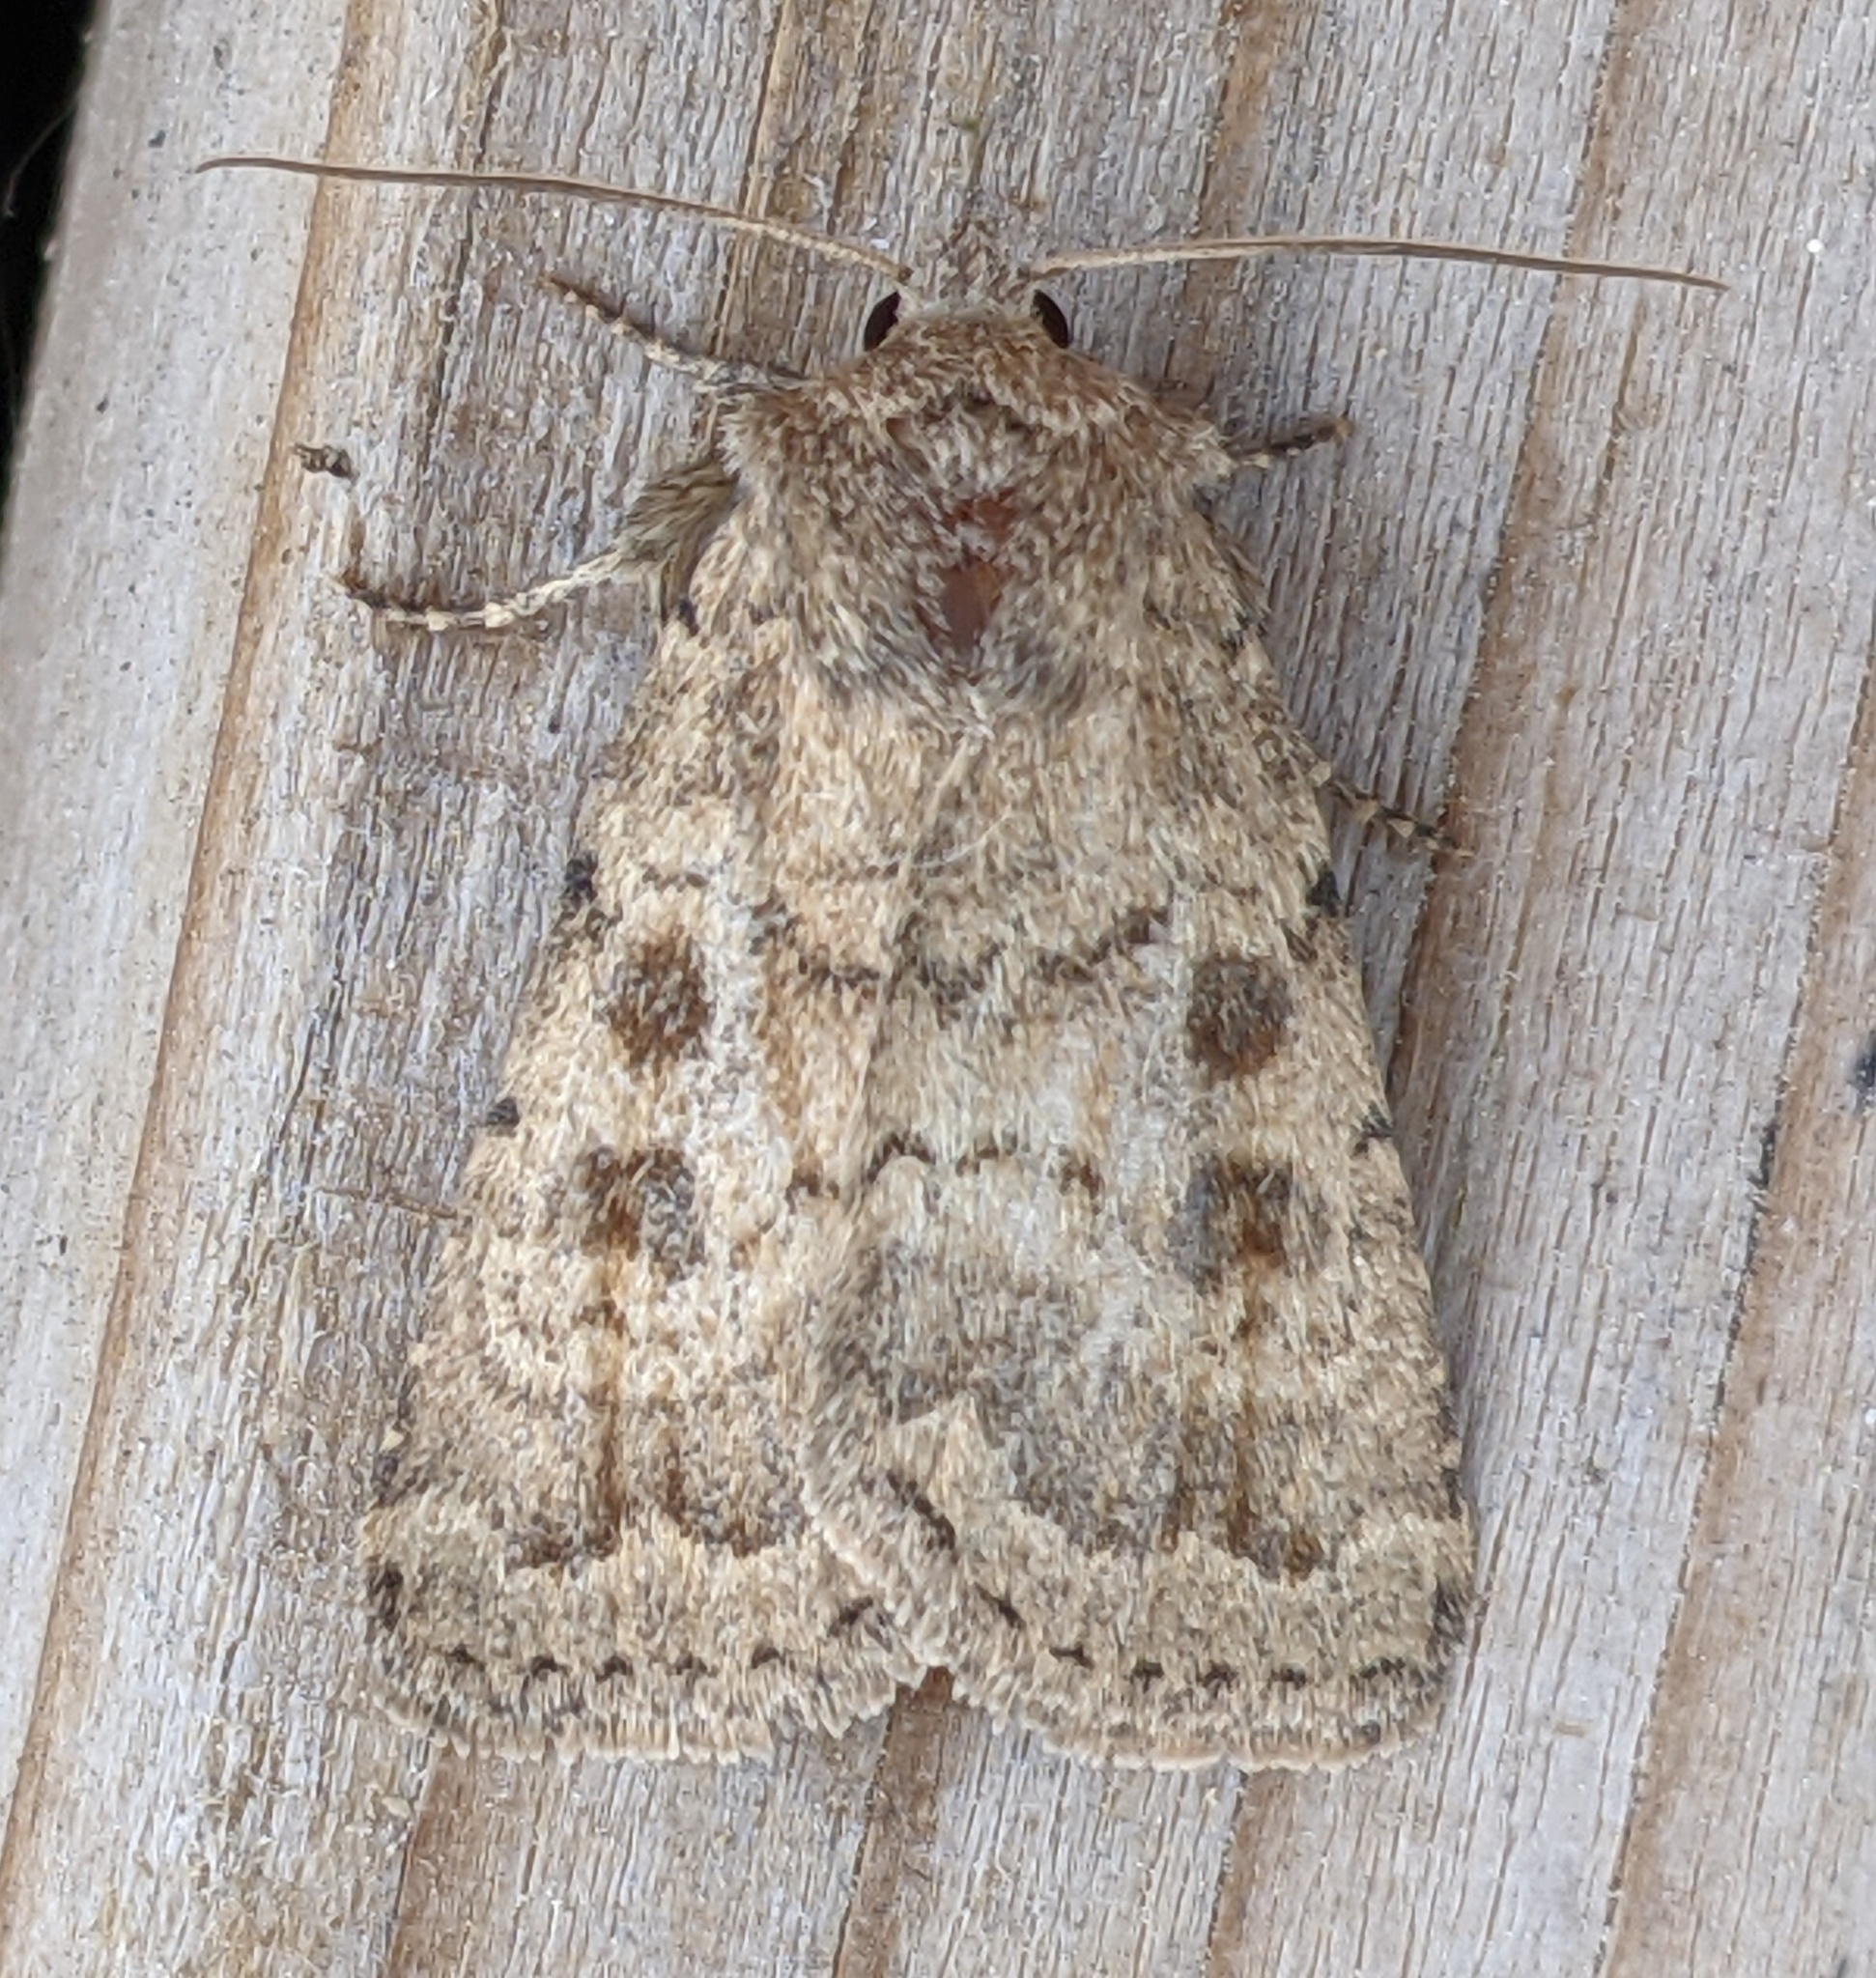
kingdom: Animalia
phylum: Arthropoda
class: Insecta
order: Lepidoptera
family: Noctuidae
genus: Caradrina
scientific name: Caradrina morpheus
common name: Mottled rustic
